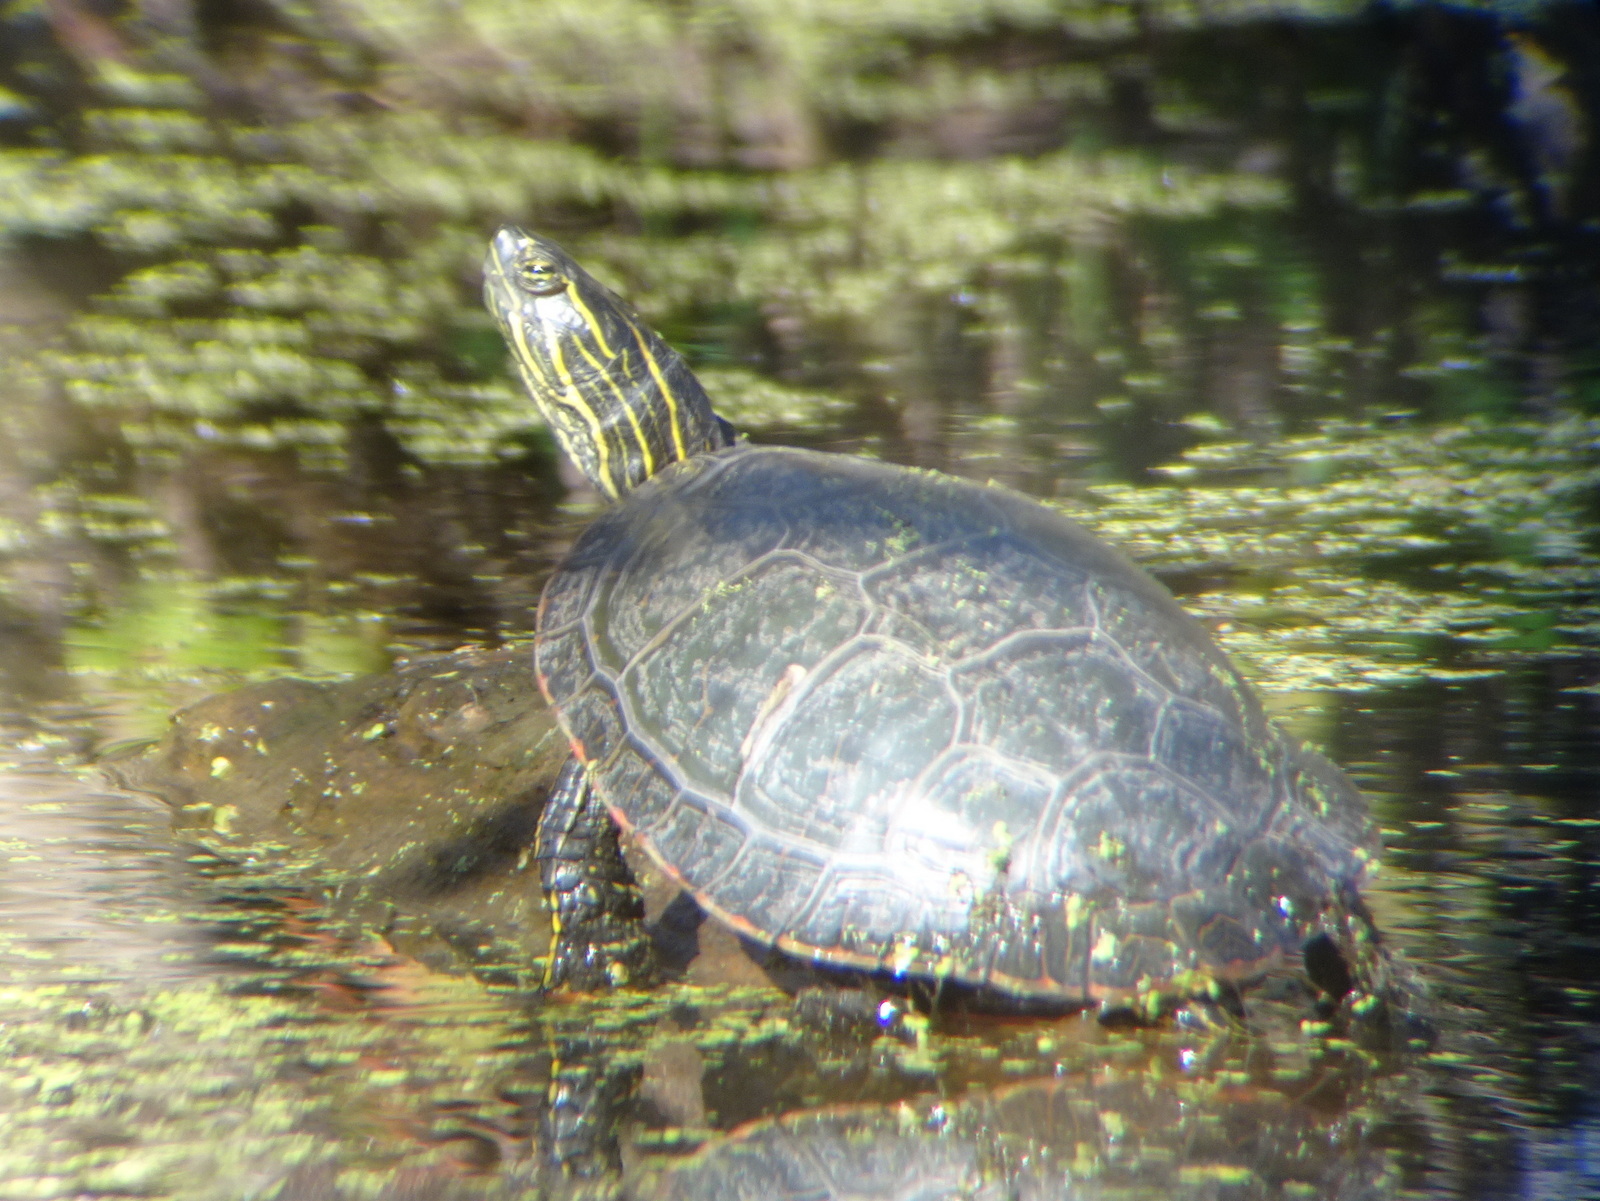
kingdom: Animalia
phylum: Chordata
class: Testudines
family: Emydidae
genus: Chrysemys
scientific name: Chrysemys picta
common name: Painted turtle
